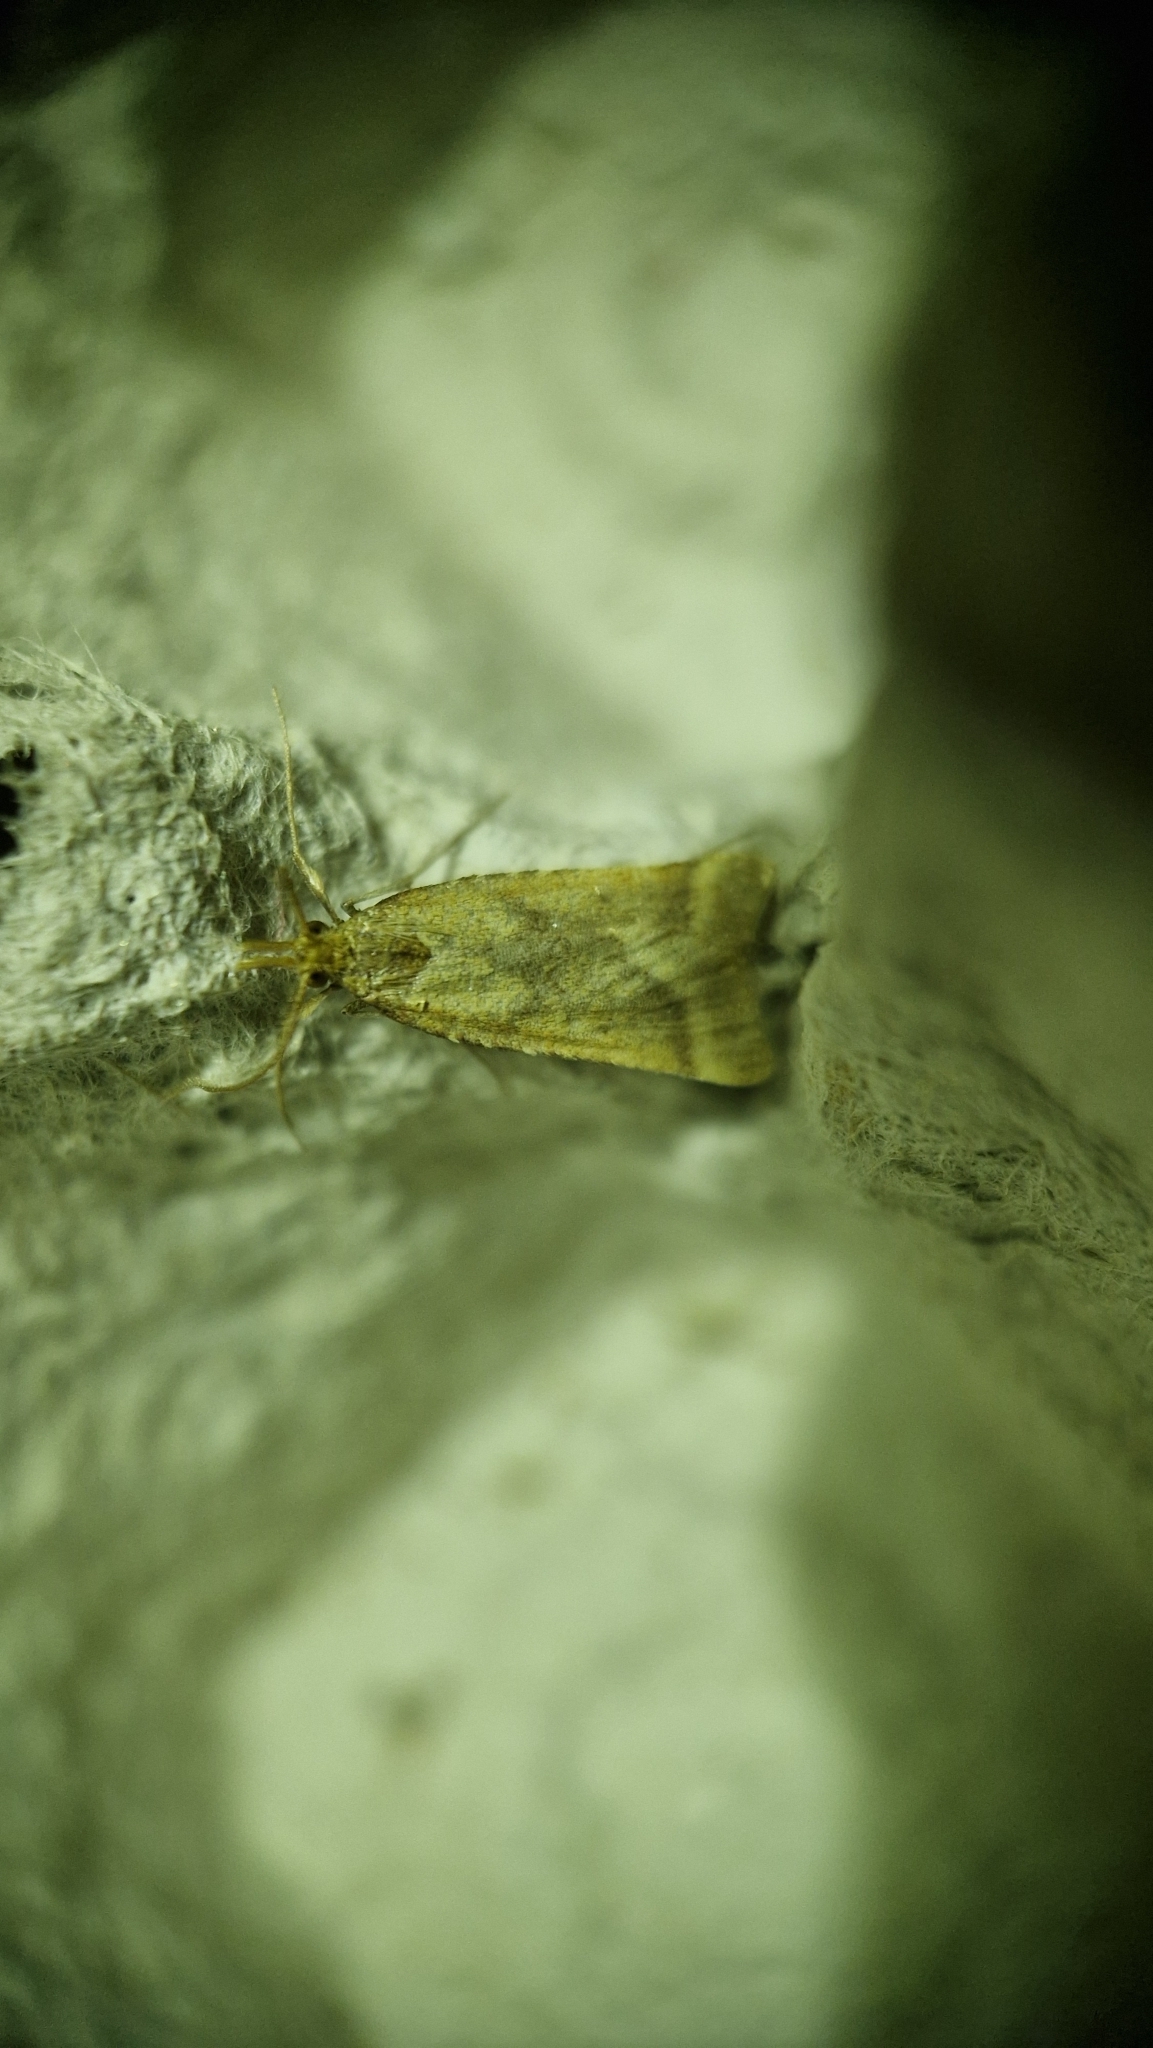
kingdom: Animalia
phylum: Arthropoda
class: Insecta
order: Lepidoptera
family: Pyralidae
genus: Synaphe
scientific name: Synaphe punctalis
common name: Long-legged tabby
